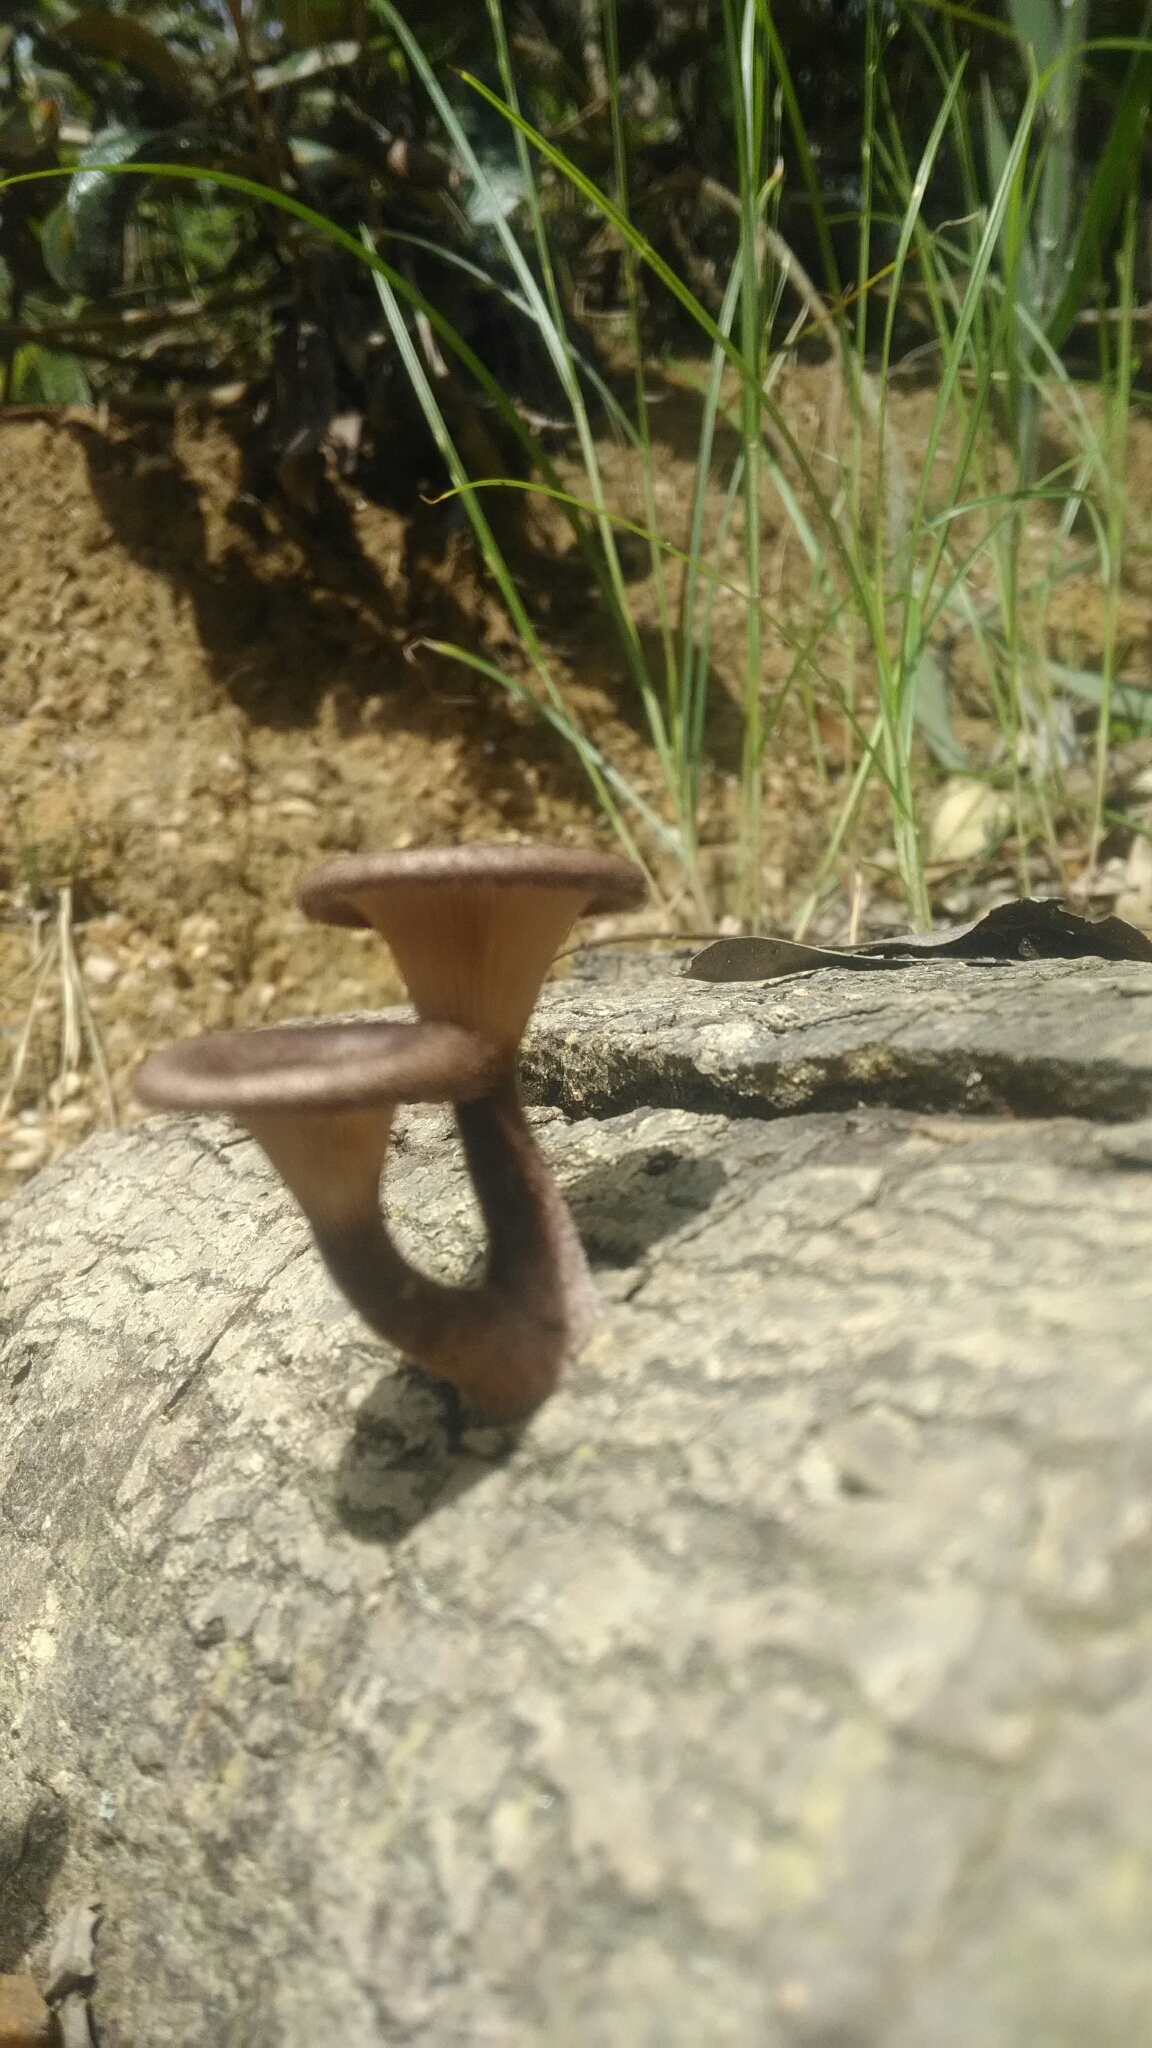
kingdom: Fungi
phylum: Basidiomycota
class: Agaricomycetes
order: Polyporales
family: Panaceae
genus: Panus
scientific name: Panus strigellus
